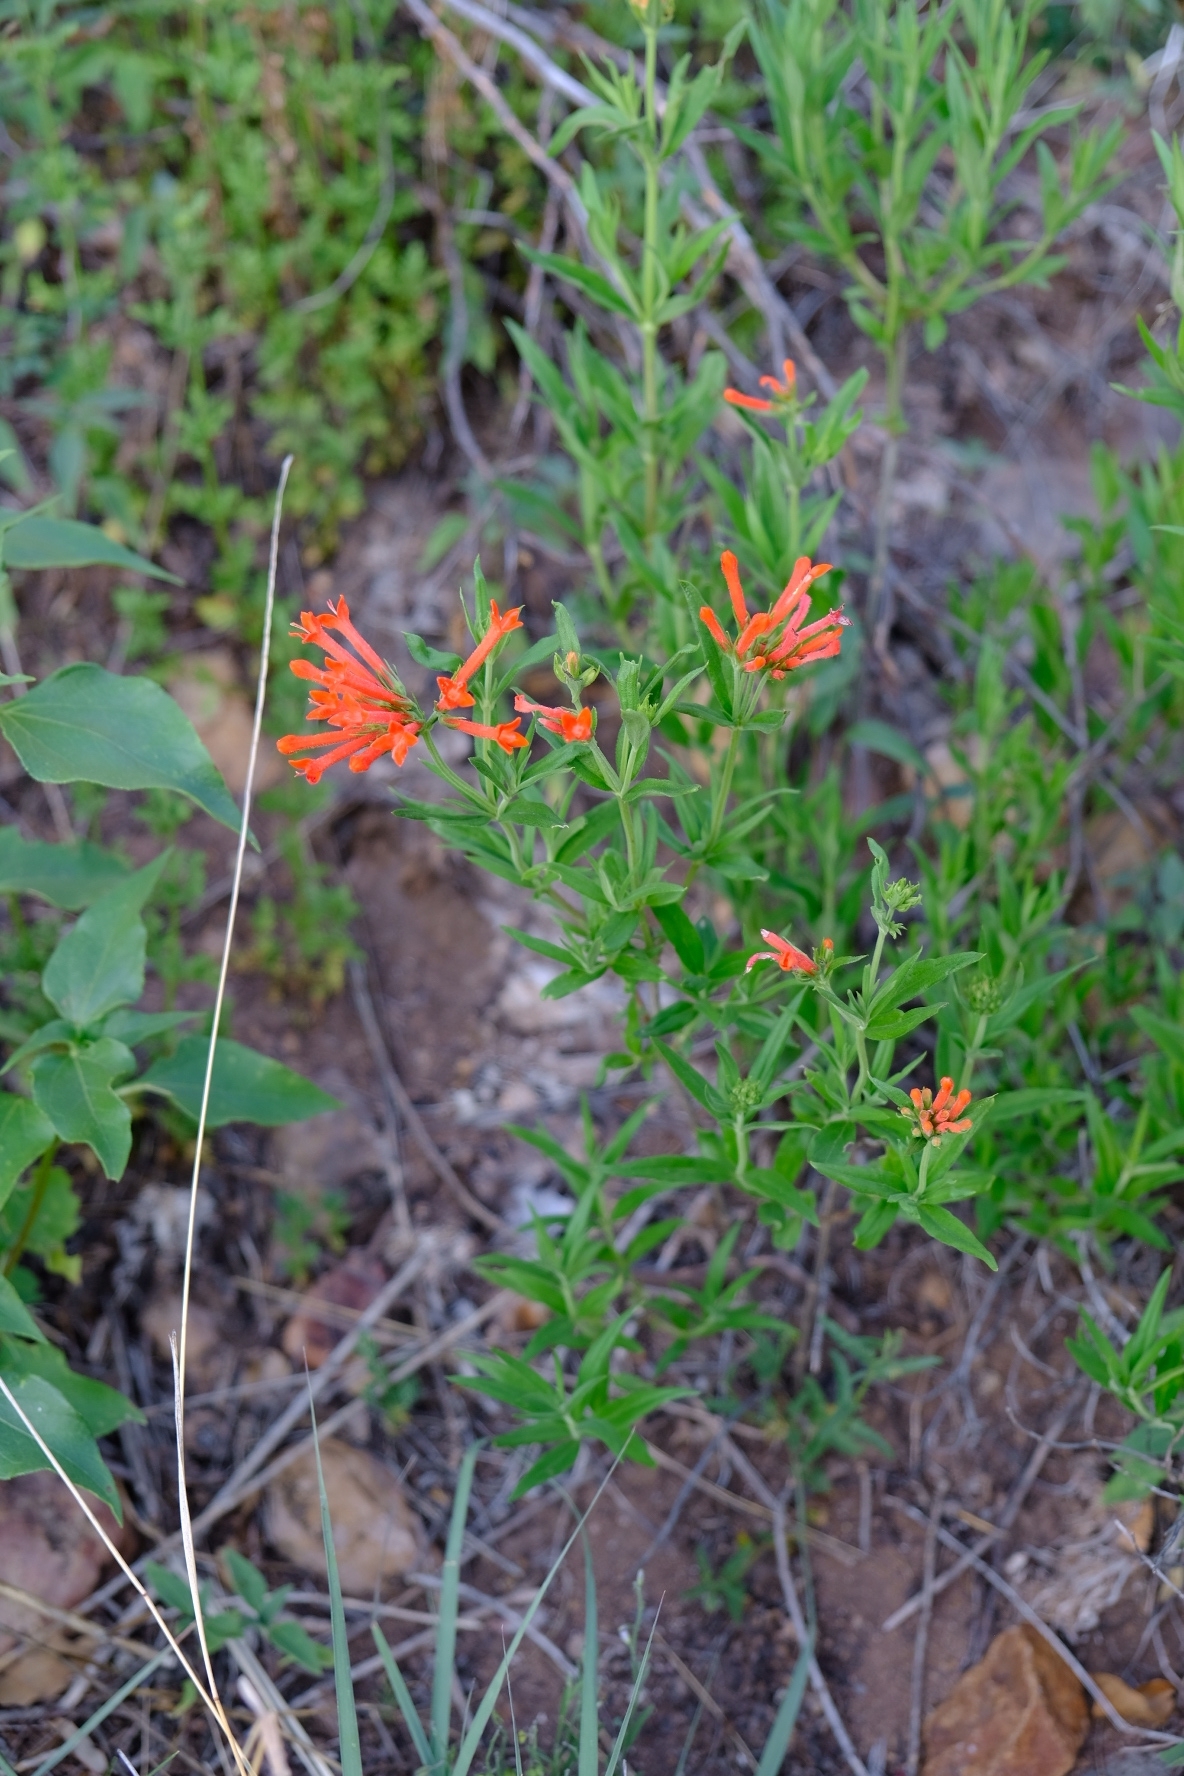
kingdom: Plantae
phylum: Tracheophyta
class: Magnoliopsida
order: Gentianales
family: Rubiaceae
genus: Bouvardia
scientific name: Bouvardia ternifolia
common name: Scarlet bouvardia
